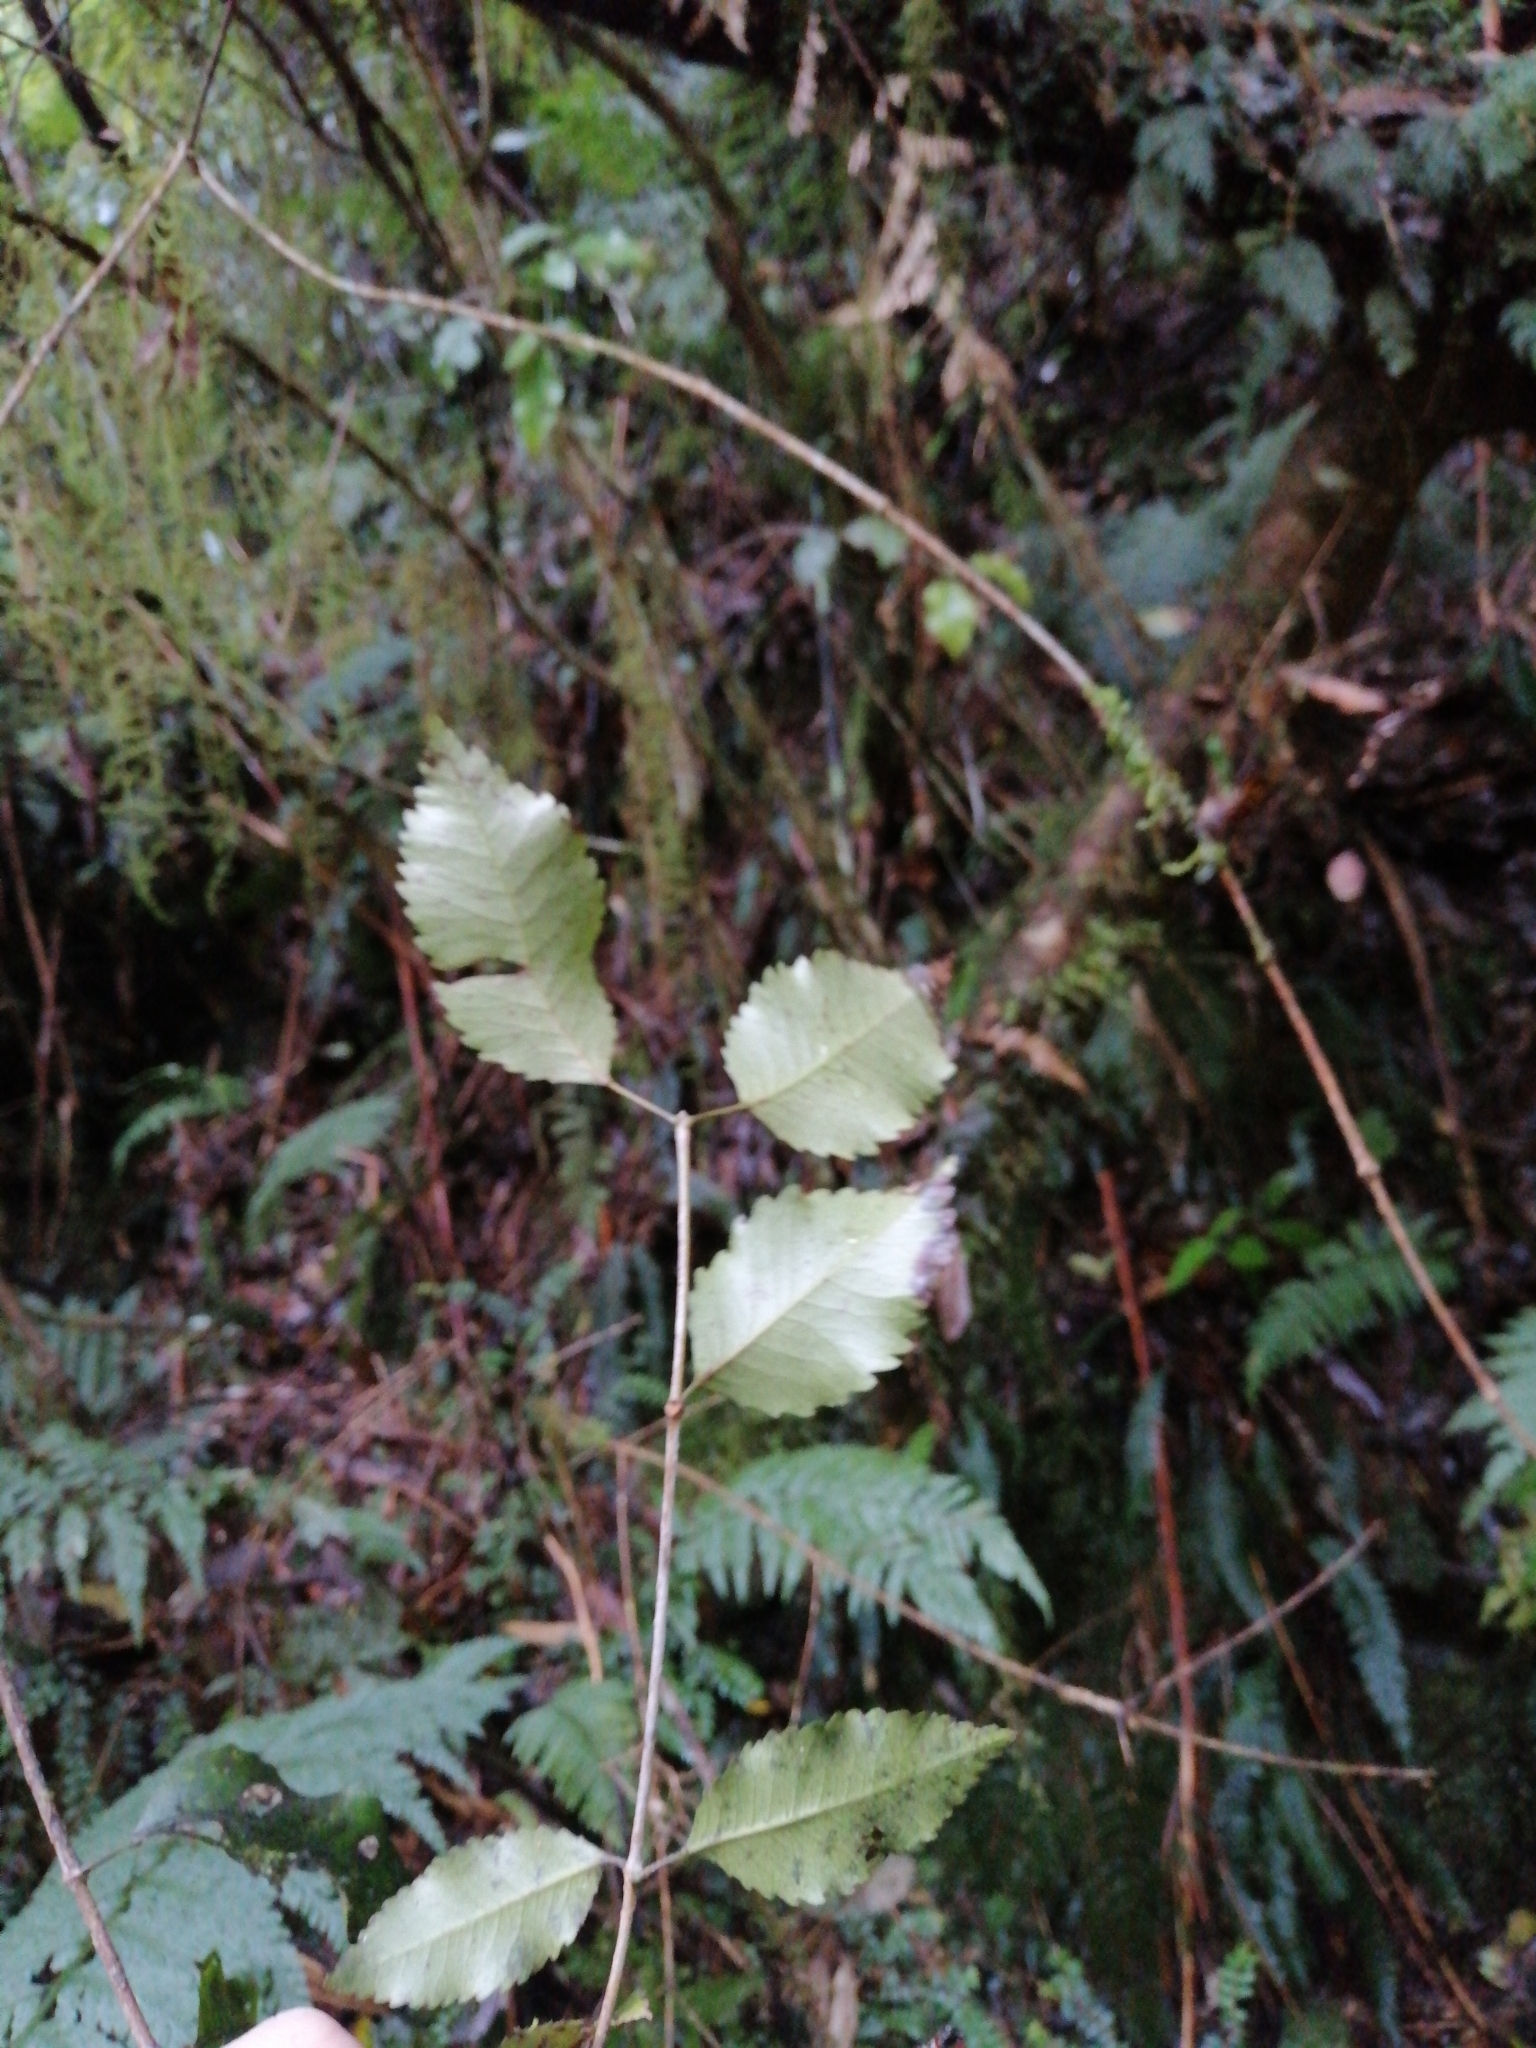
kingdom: Plantae
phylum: Tracheophyta
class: Magnoliopsida
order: Oxalidales
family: Cunoniaceae
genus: Pterophylla
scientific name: Pterophylla racemosa
